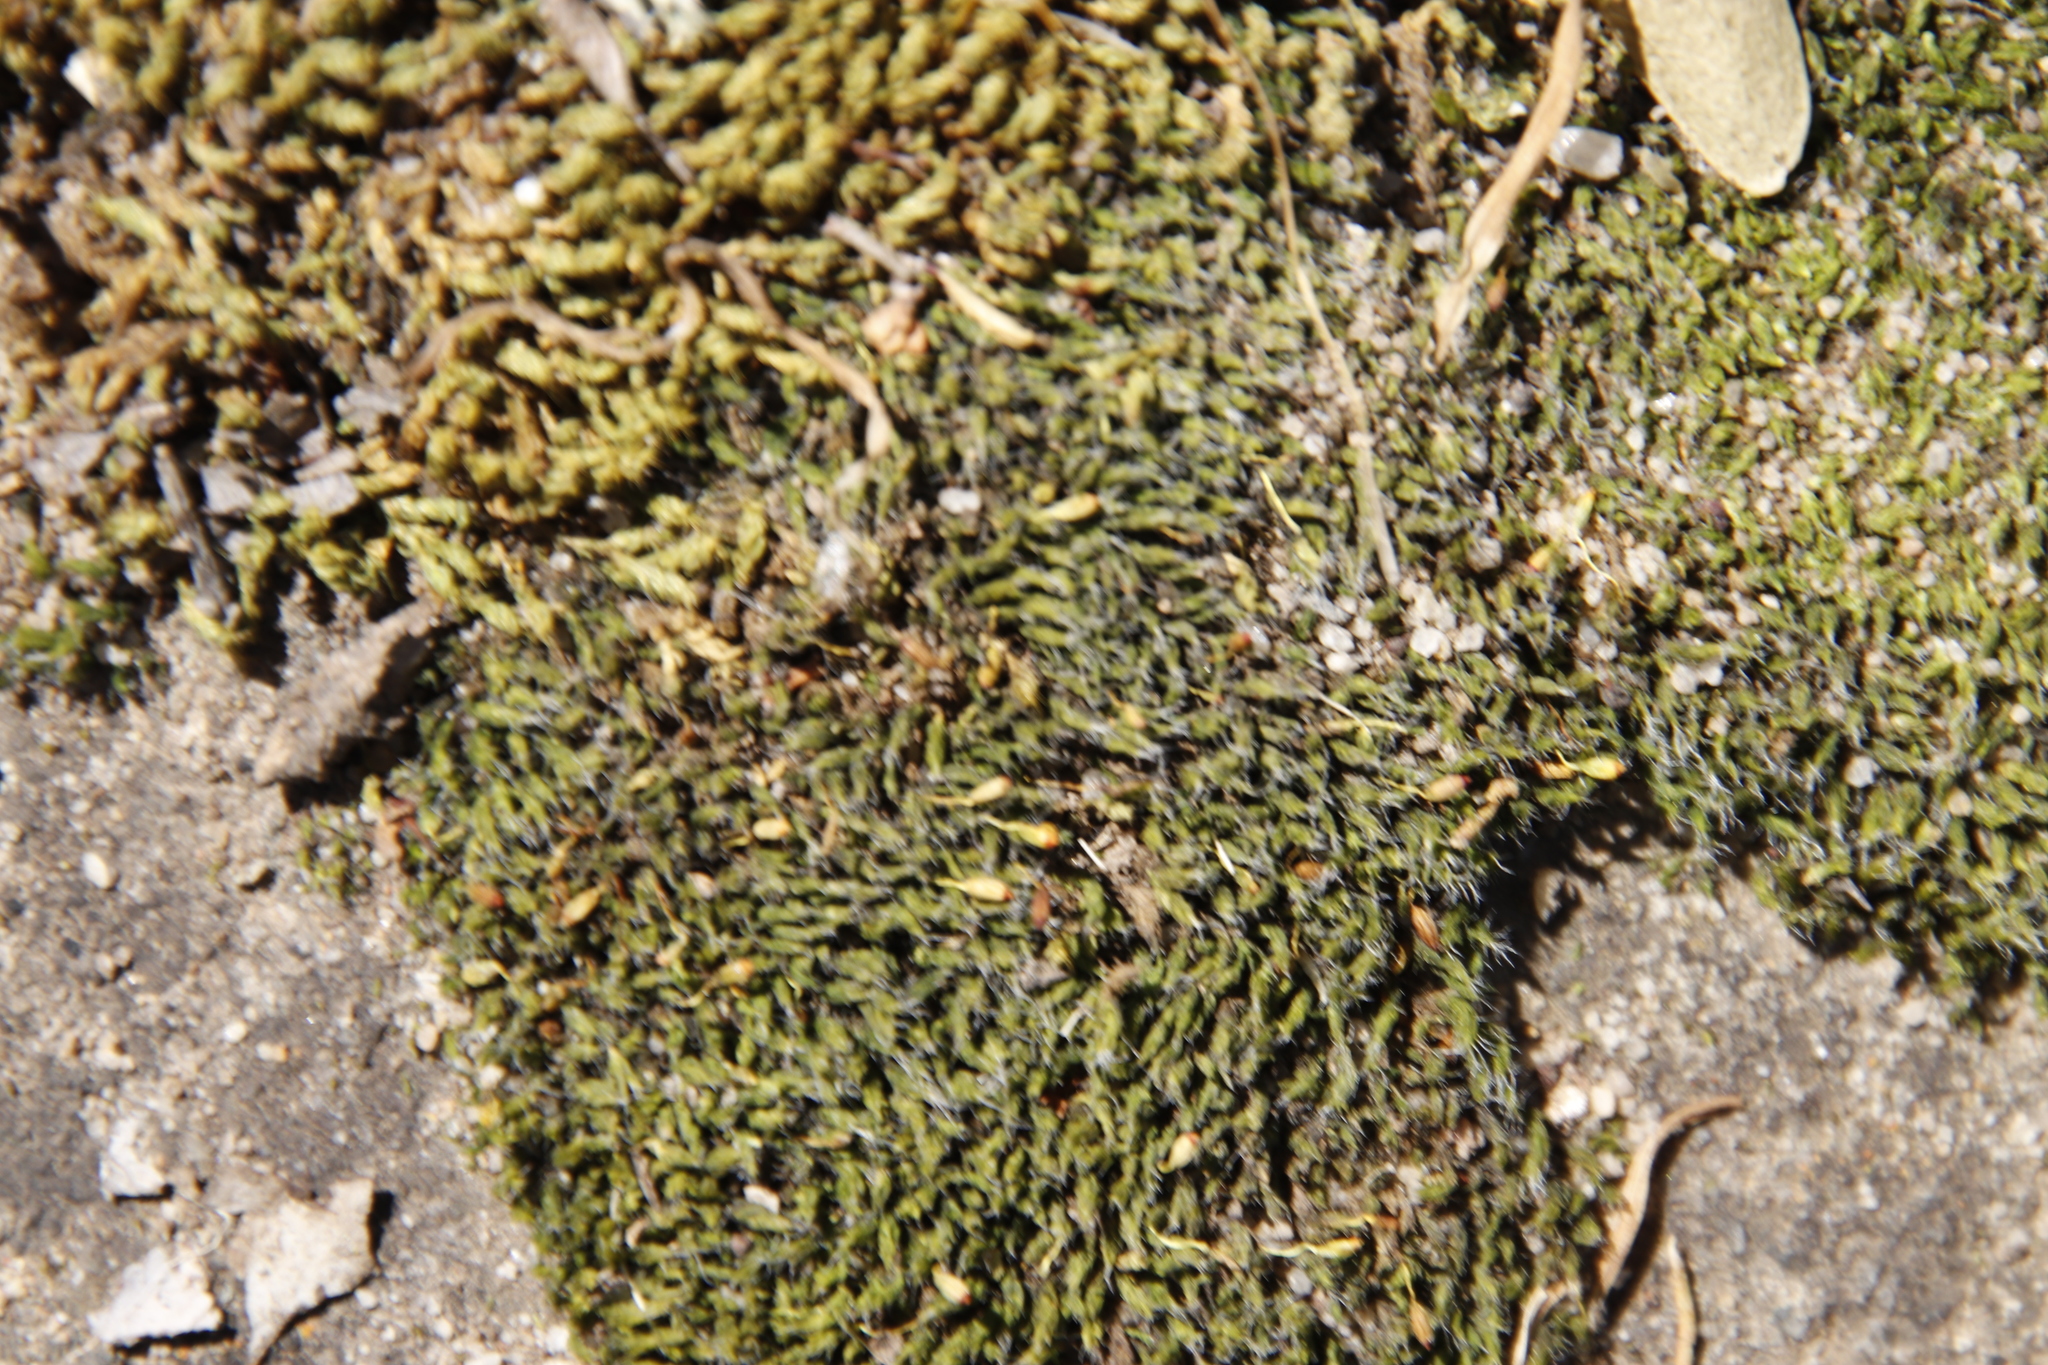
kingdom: Plantae
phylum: Bryophyta
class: Bryopsida
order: Pottiales
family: Pottiaceae
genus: Pseudocrossidium
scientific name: Pseudocrossidium crinitum
